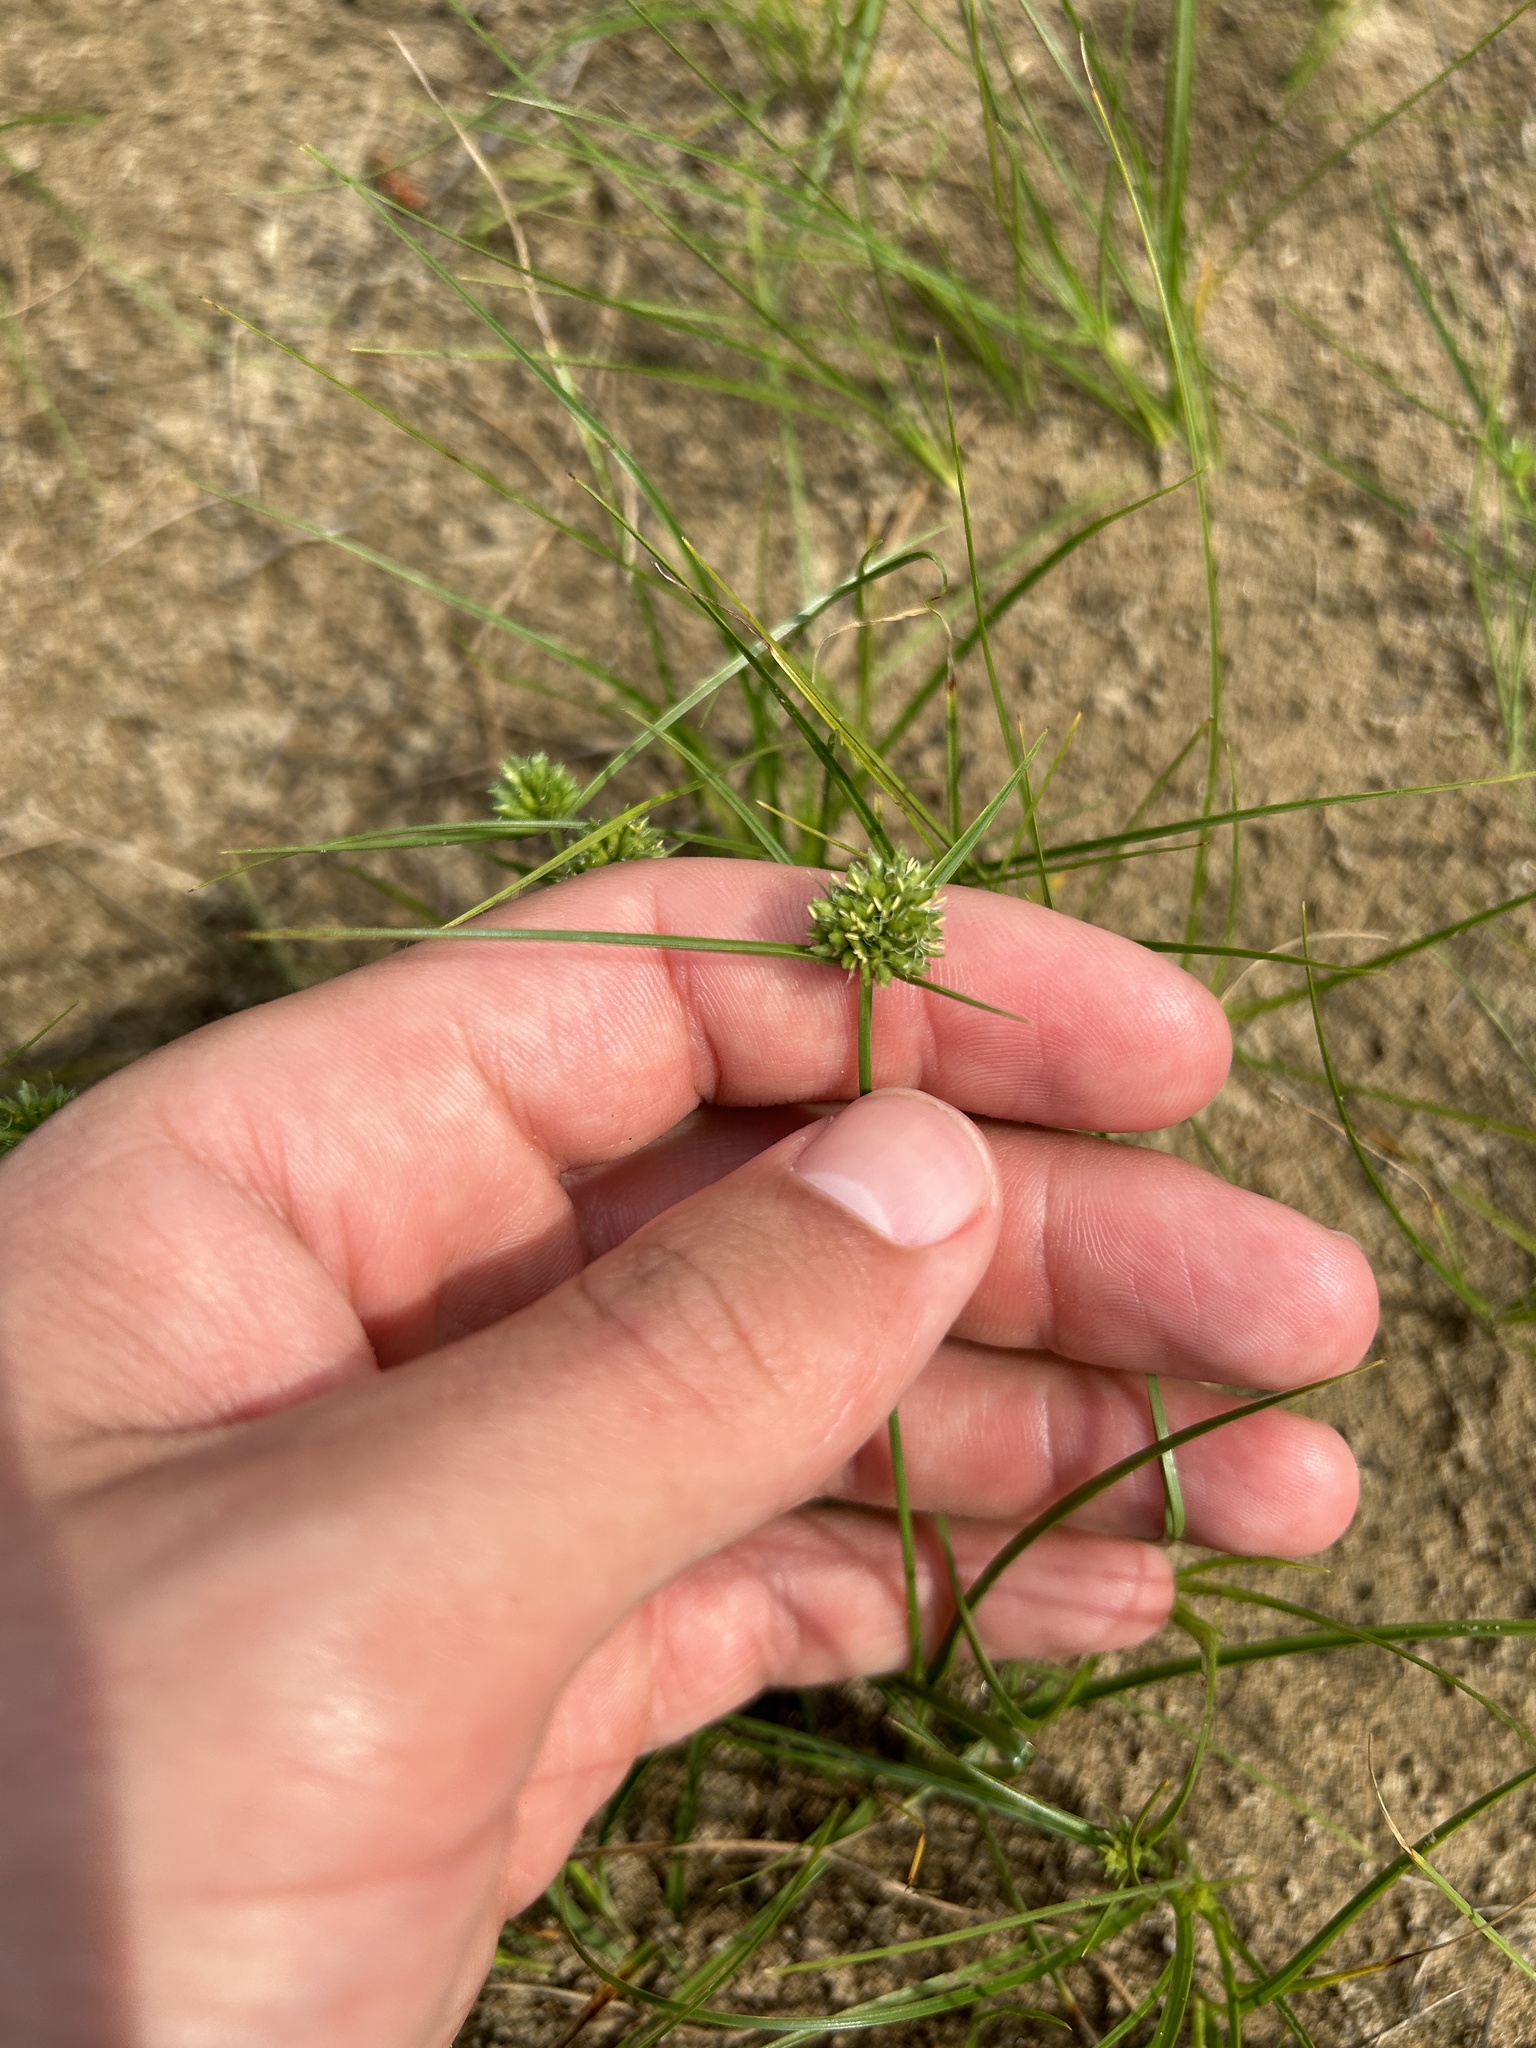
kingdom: Plantae
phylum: Tracheophyta
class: Liliopsida
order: Poales
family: Cyperaceae
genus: Cyperus
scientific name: Cyperus lupulinus
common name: Great plains flatsedge
